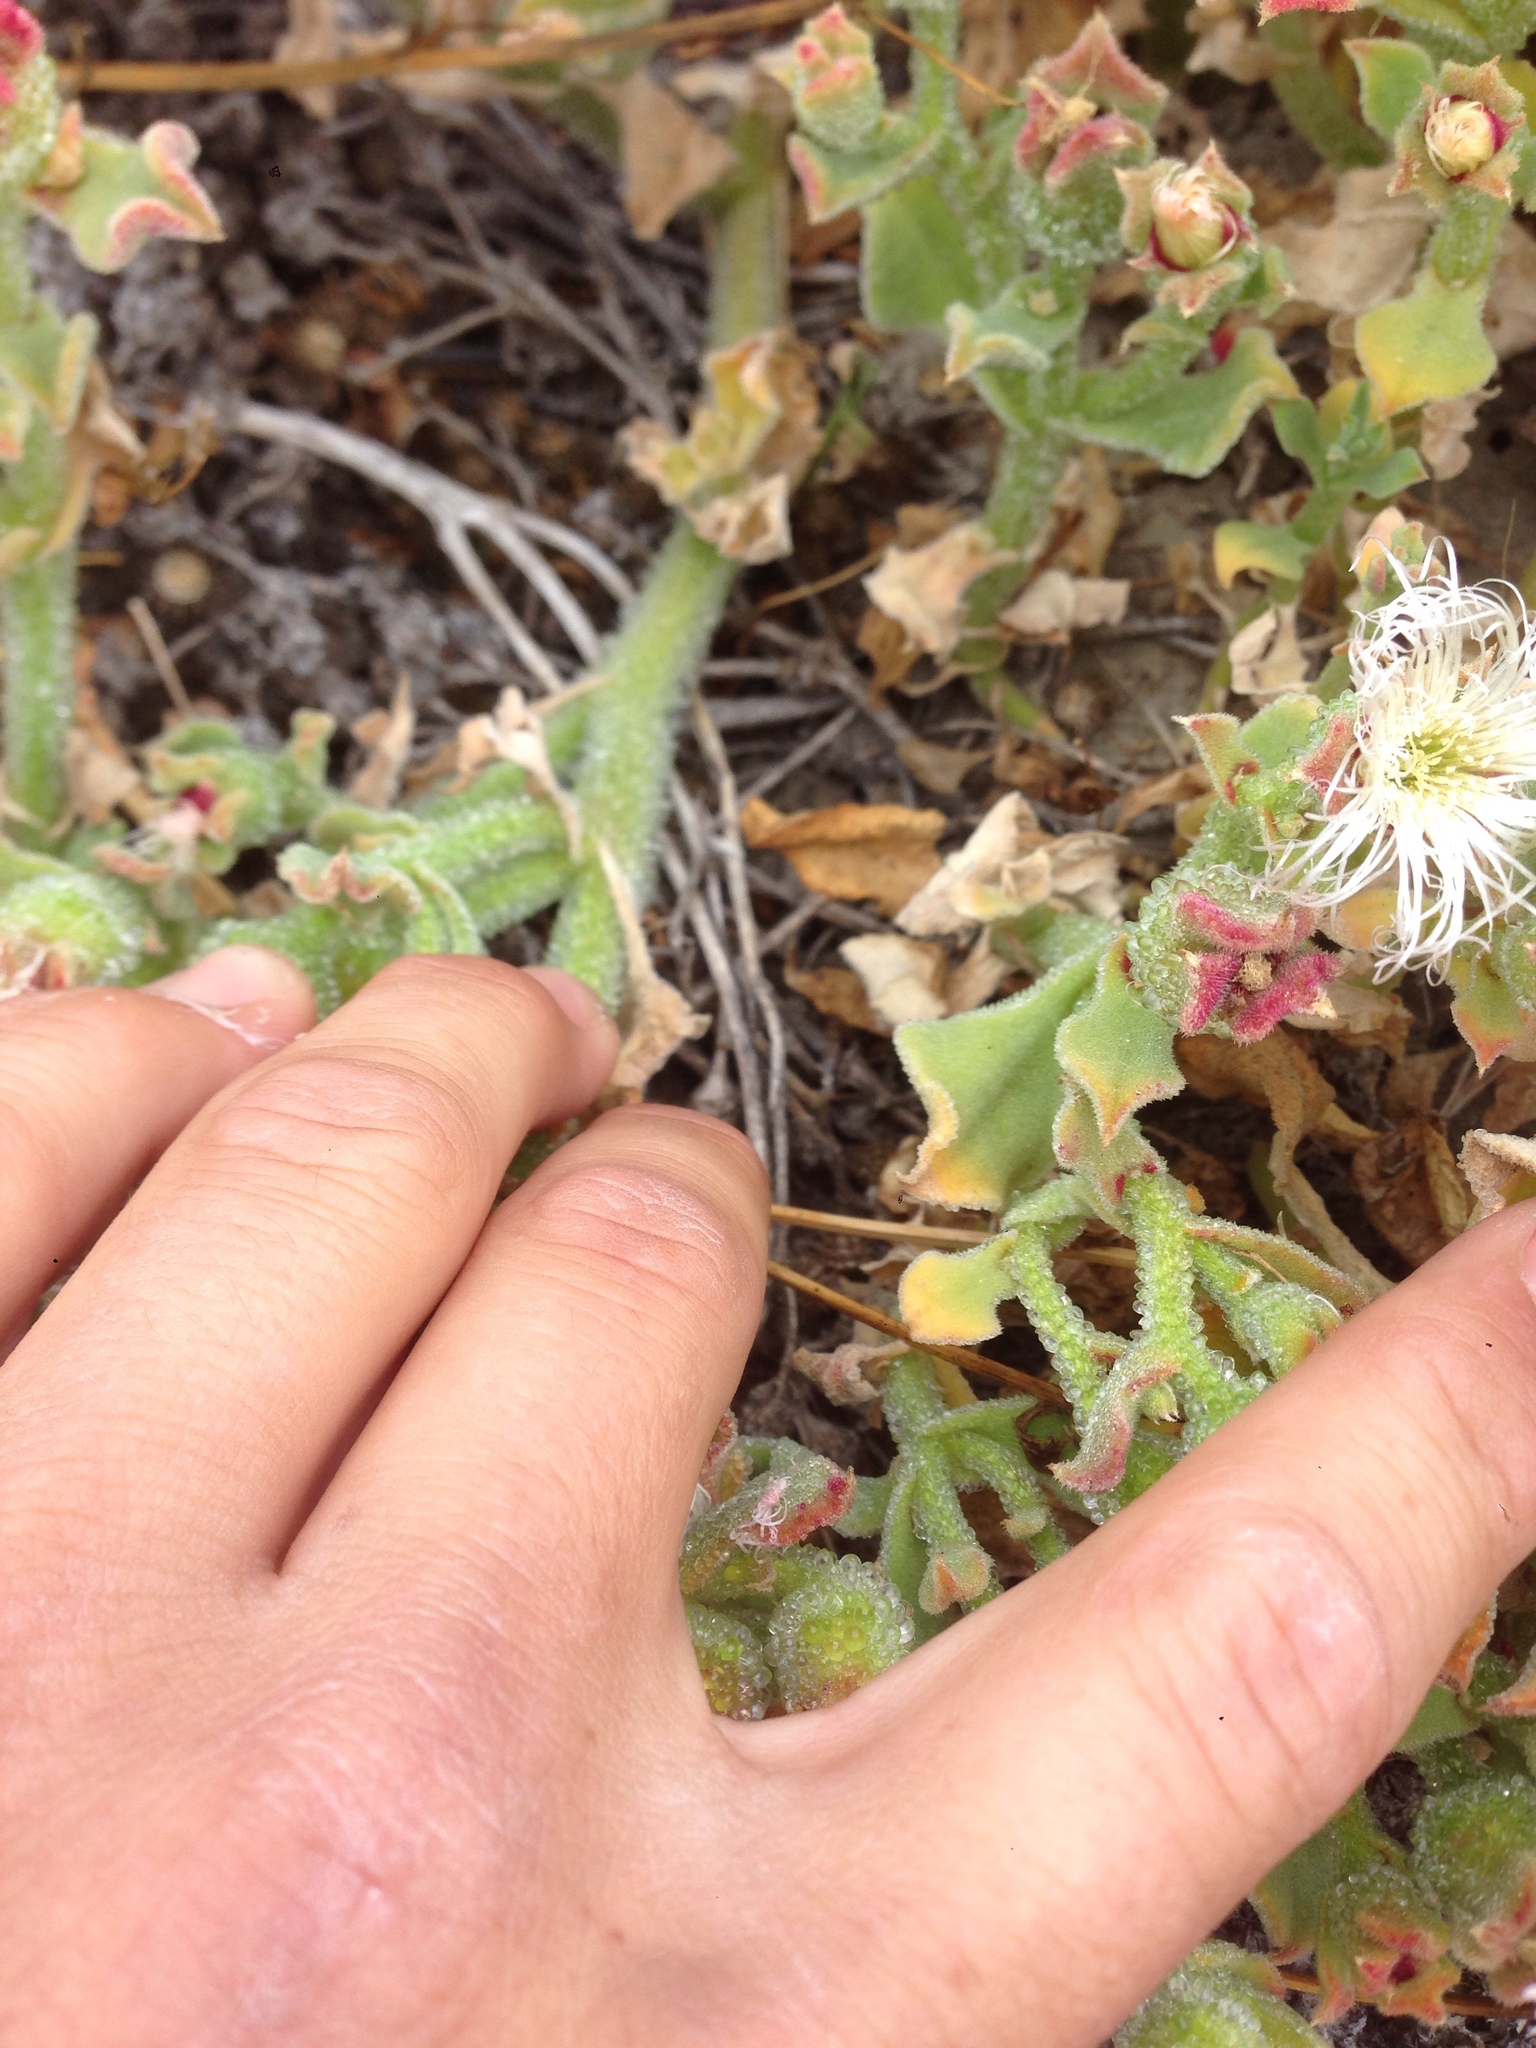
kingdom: Plantae
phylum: Tracheophyta
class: Magnoliopsida
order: Caryophyllales
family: Aizoaceae
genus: Mesembryanthemum
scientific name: Mesembryanthemum crystallinum
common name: Common iceplant
